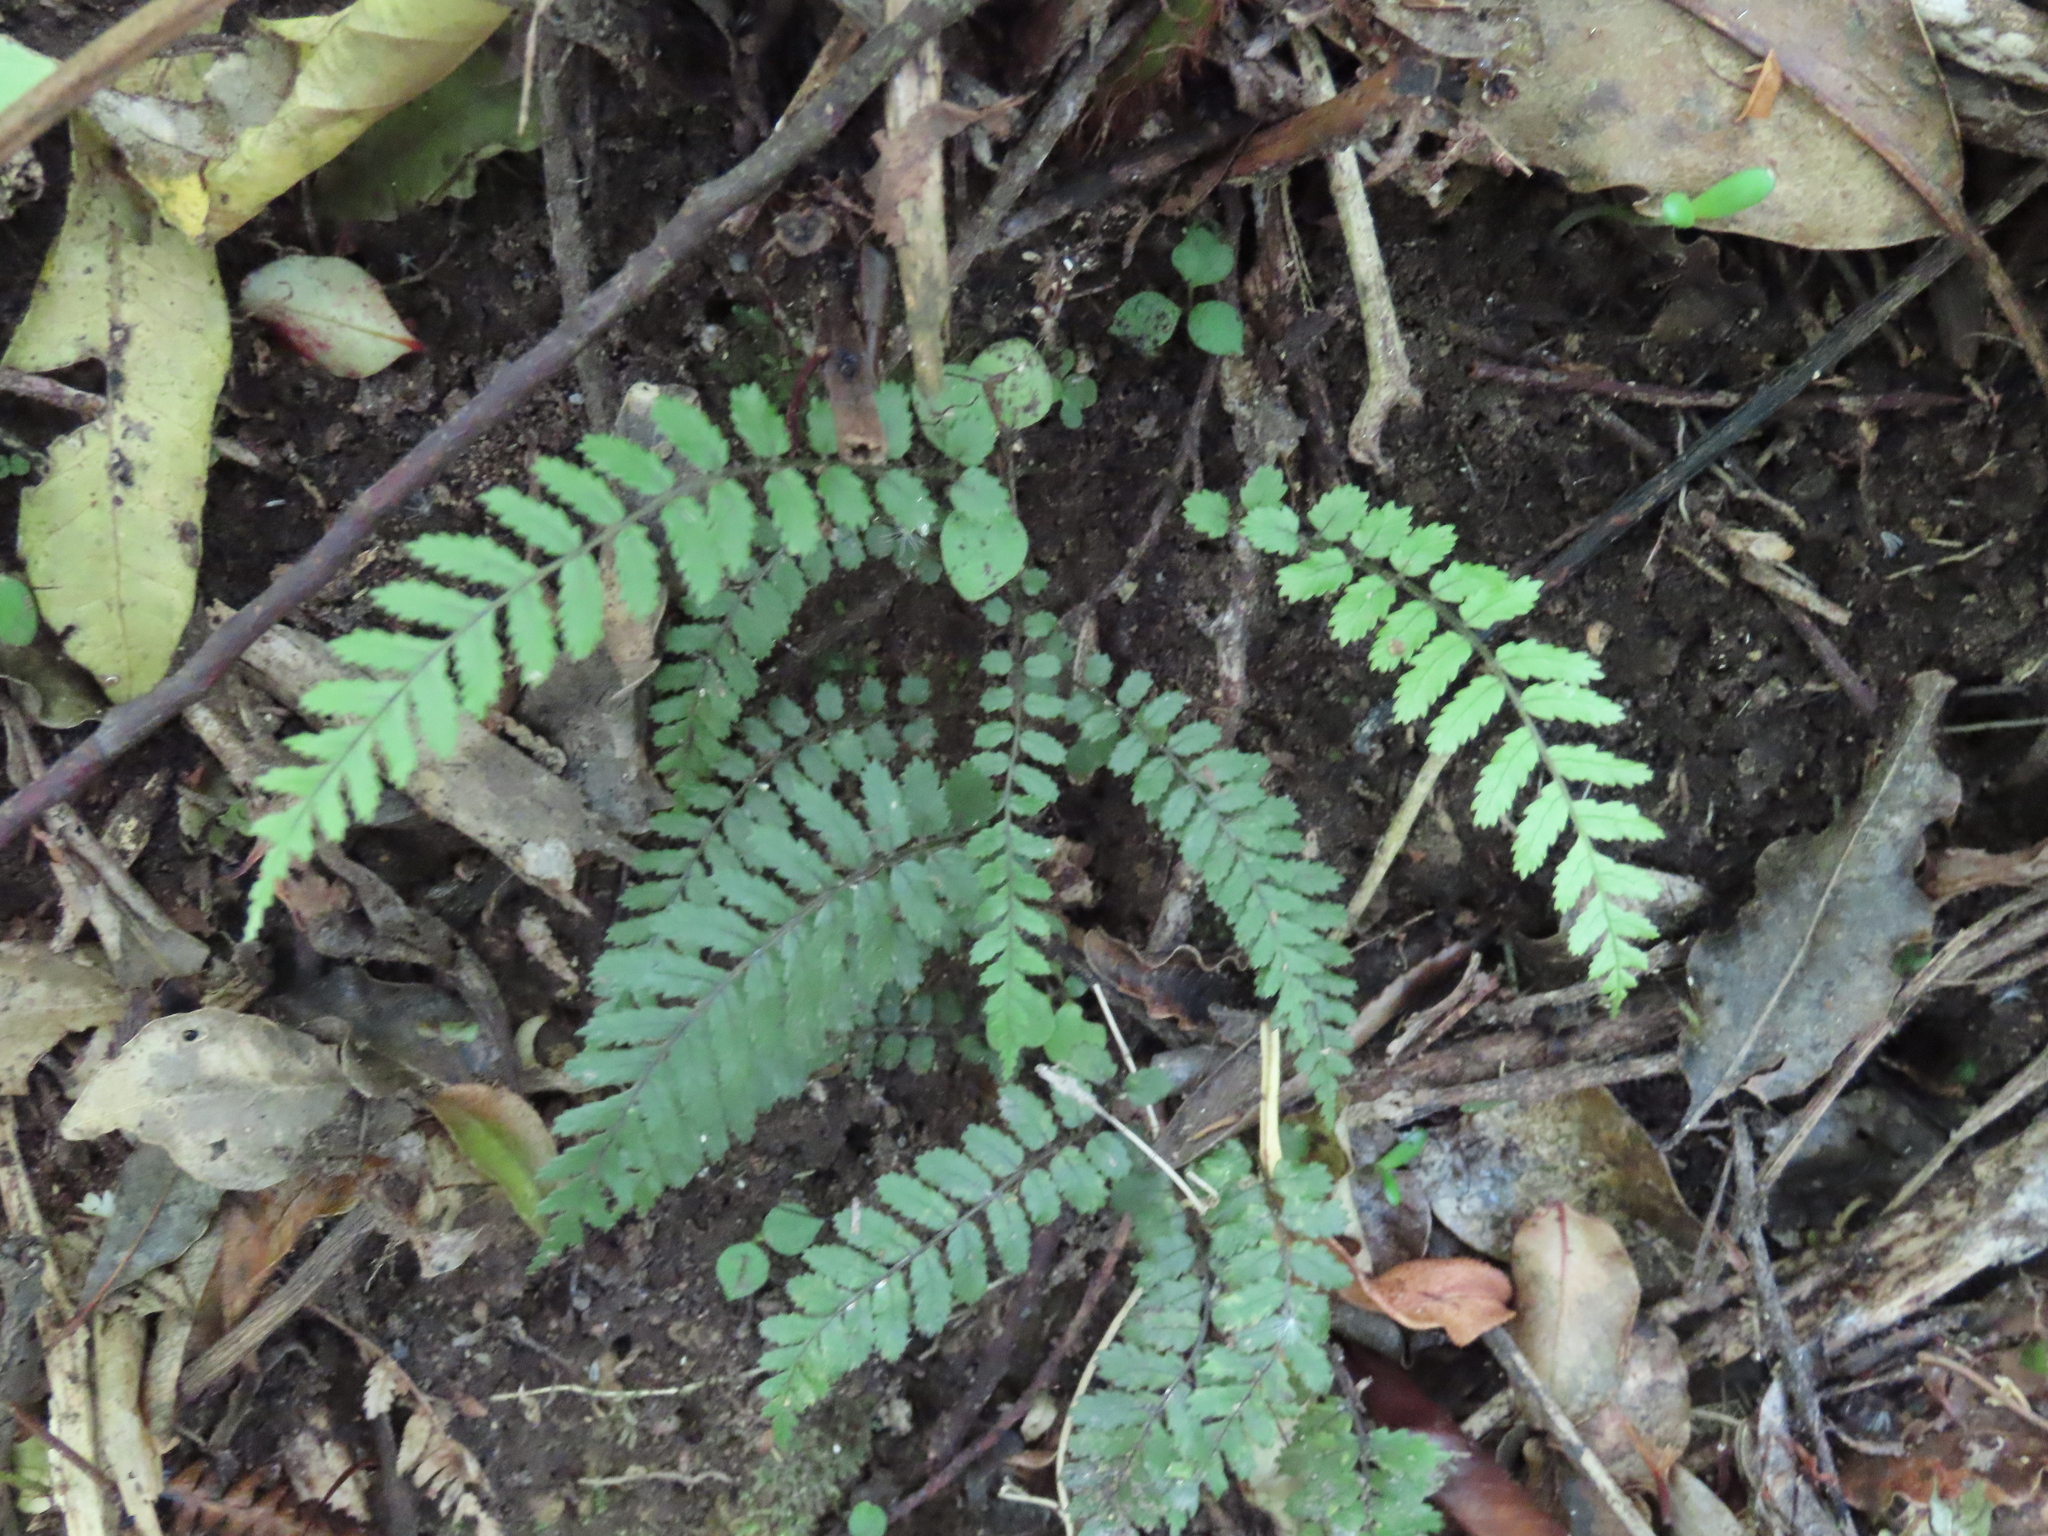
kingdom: Plantae
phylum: Tracheophyta
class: Polypodiopsida
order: Polypodiales
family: Blechnaceae
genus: Icarus
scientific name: Icarus filiformis
